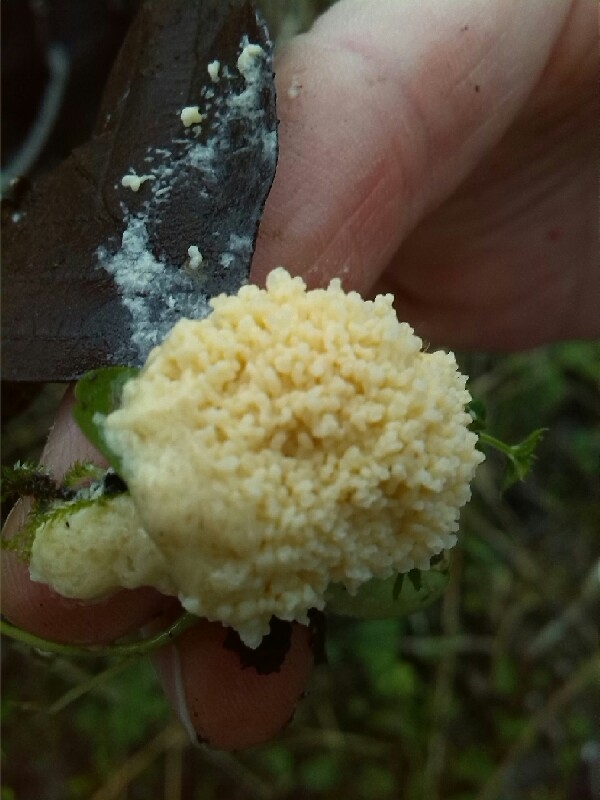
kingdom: Protozoa
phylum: Mycetozoa
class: Myxomycetes
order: Physarales
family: Physaraceae
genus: Fuligo
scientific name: Fuligo septica
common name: Dog vomit slime mold
